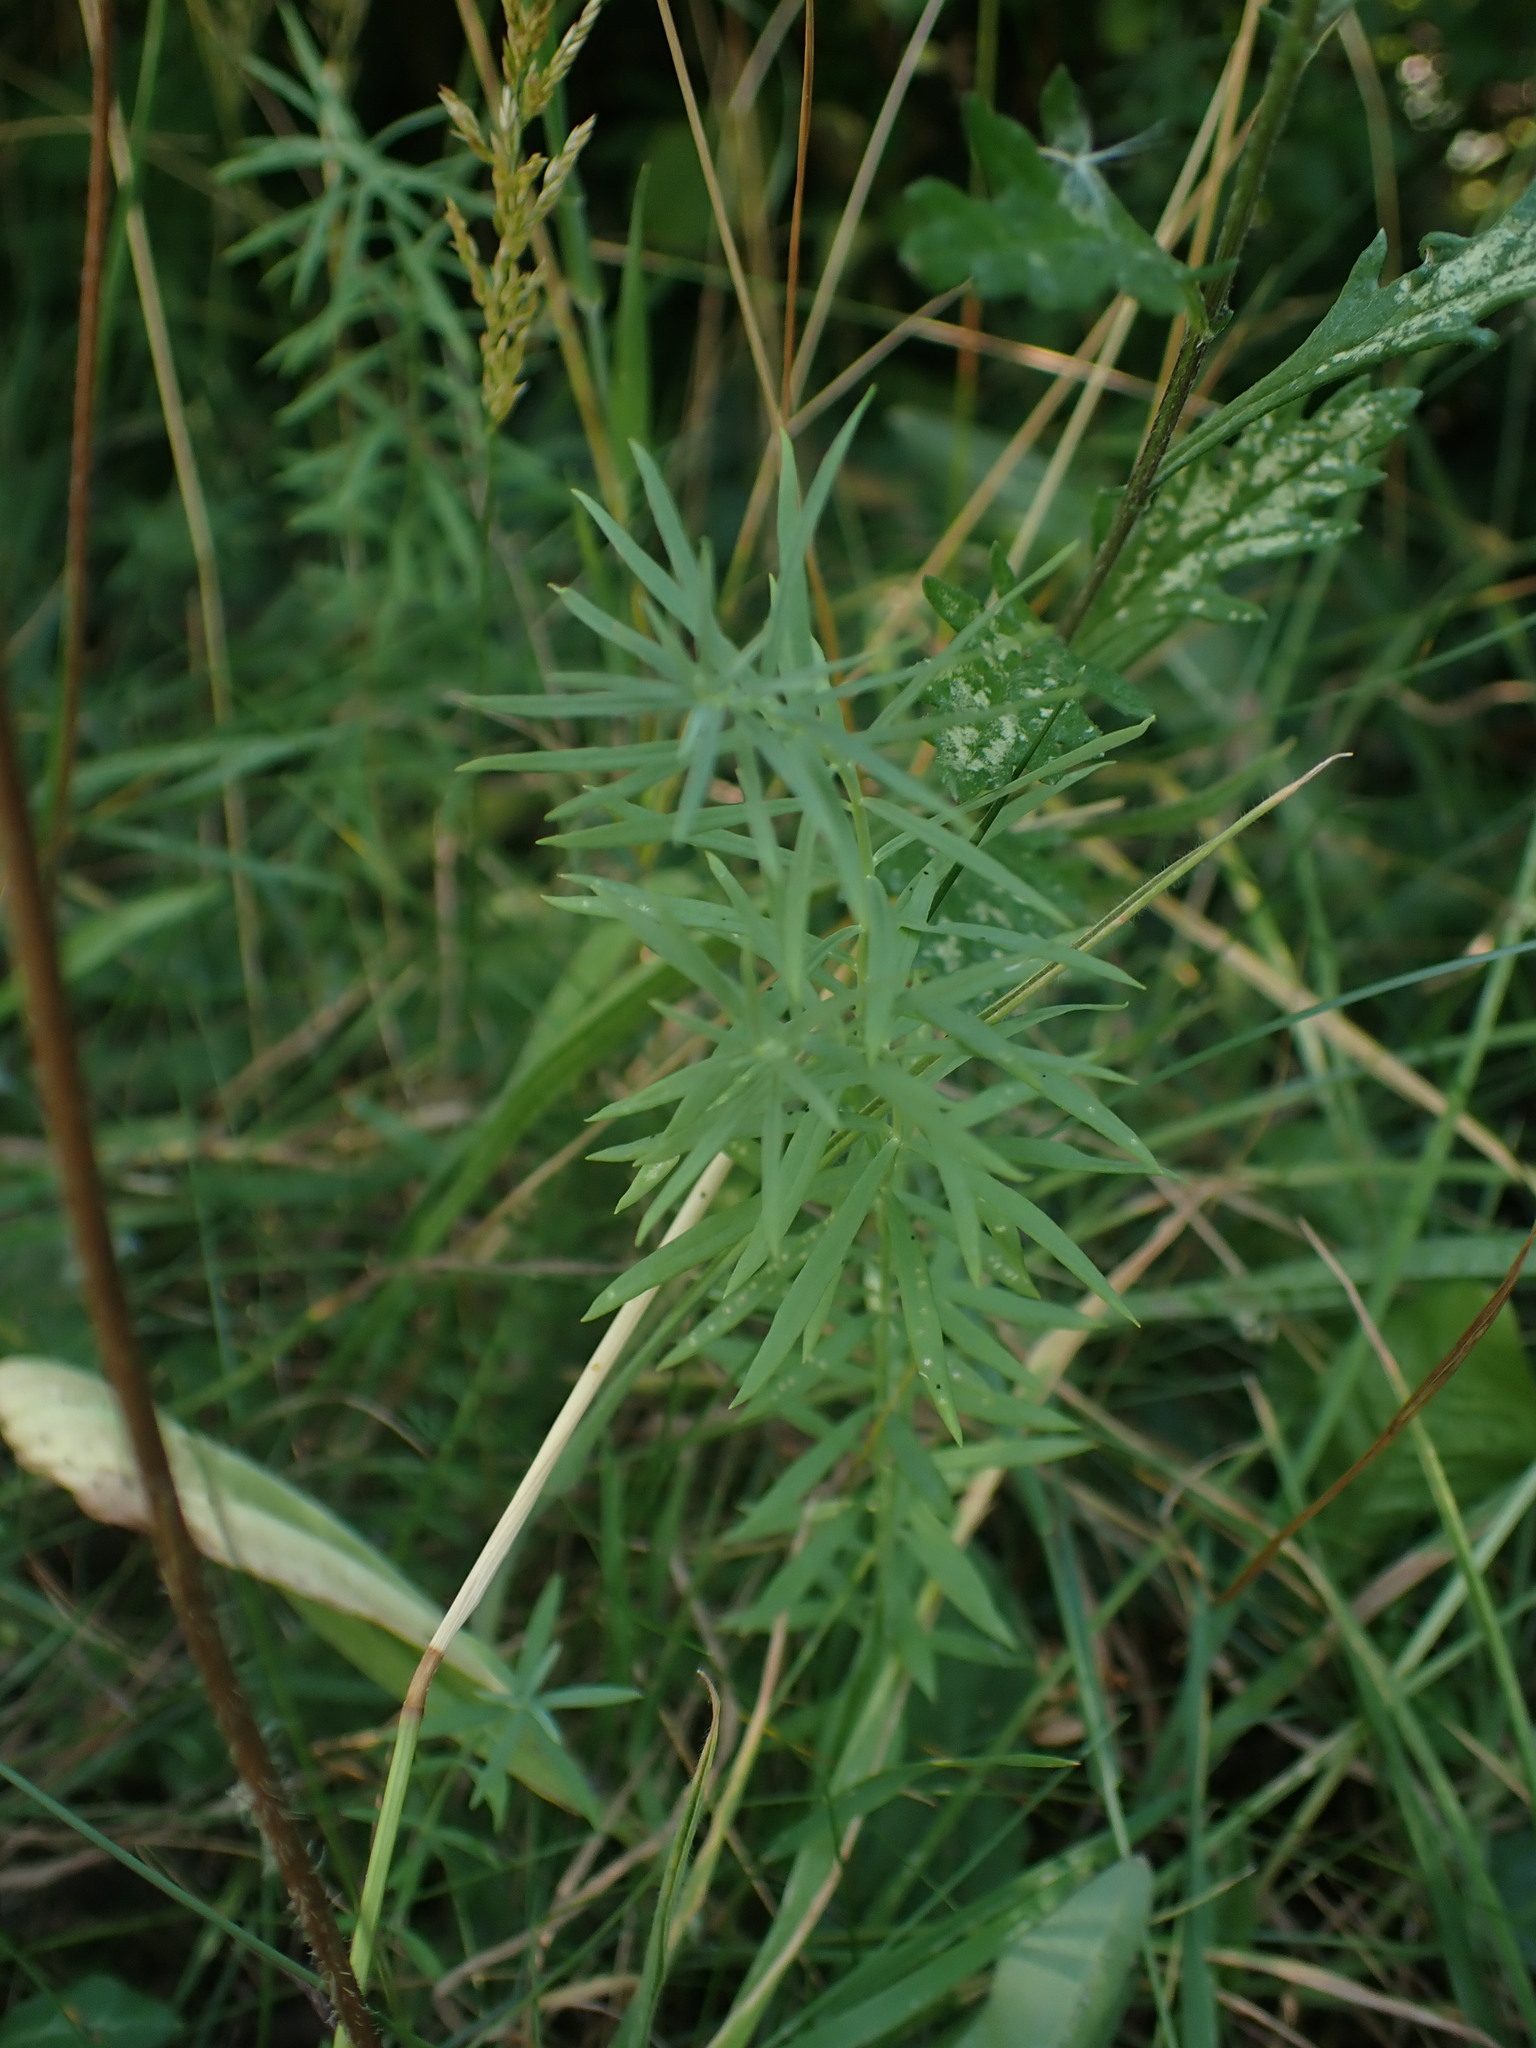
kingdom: Plantae
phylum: Tracheophyta
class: Magnoliopsida
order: Lamiales
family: Plantaginaceae
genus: Linaria
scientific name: Linaria vulgaris
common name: Butter and eggs
